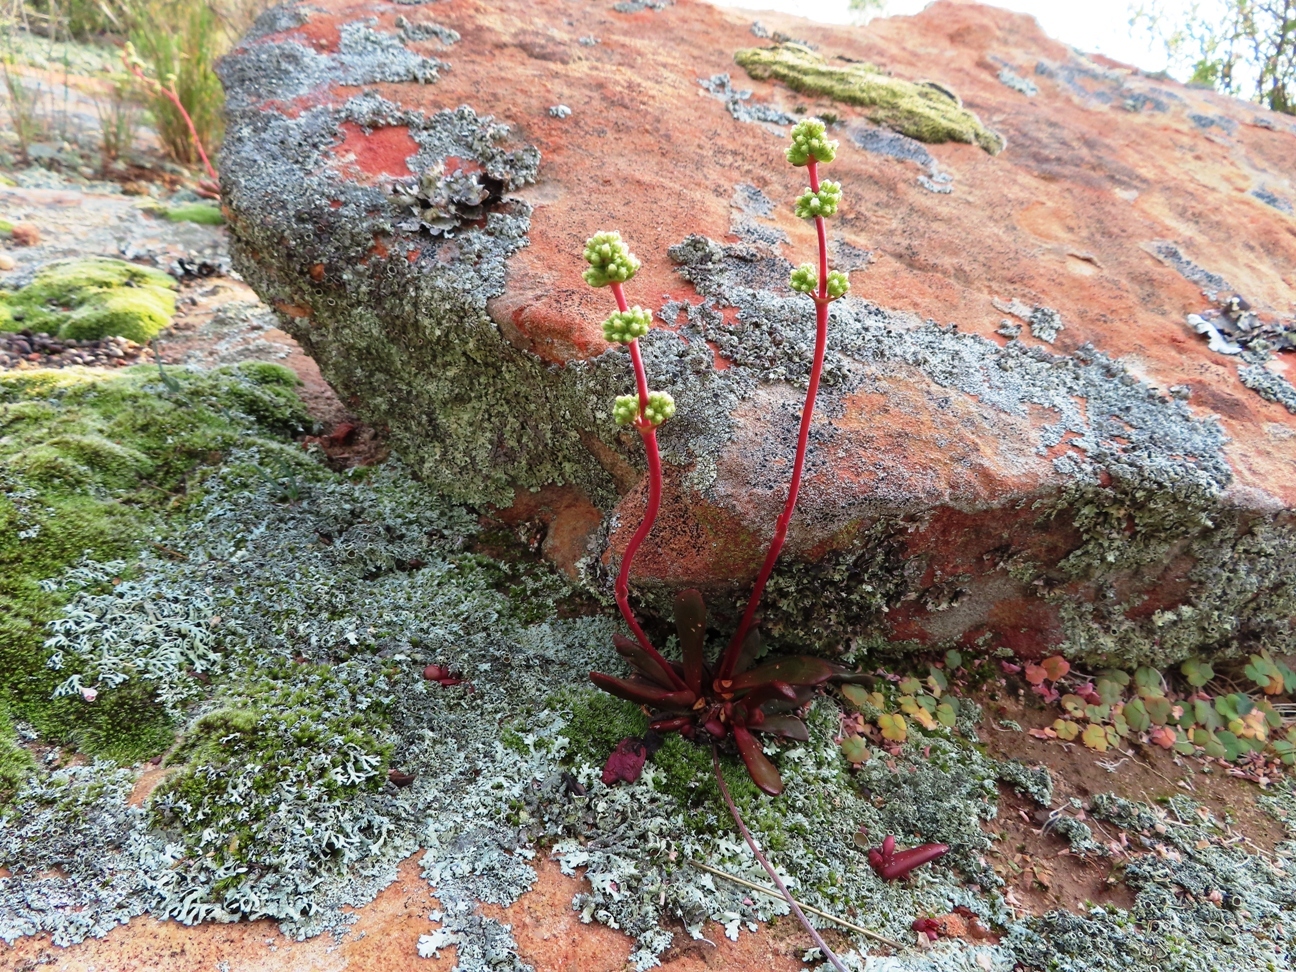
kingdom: Plantae
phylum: Tracheophyta
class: Magnoliopsida
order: Saxifragales
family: Crassulaceae
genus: Crassula
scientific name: Crassula clavata
